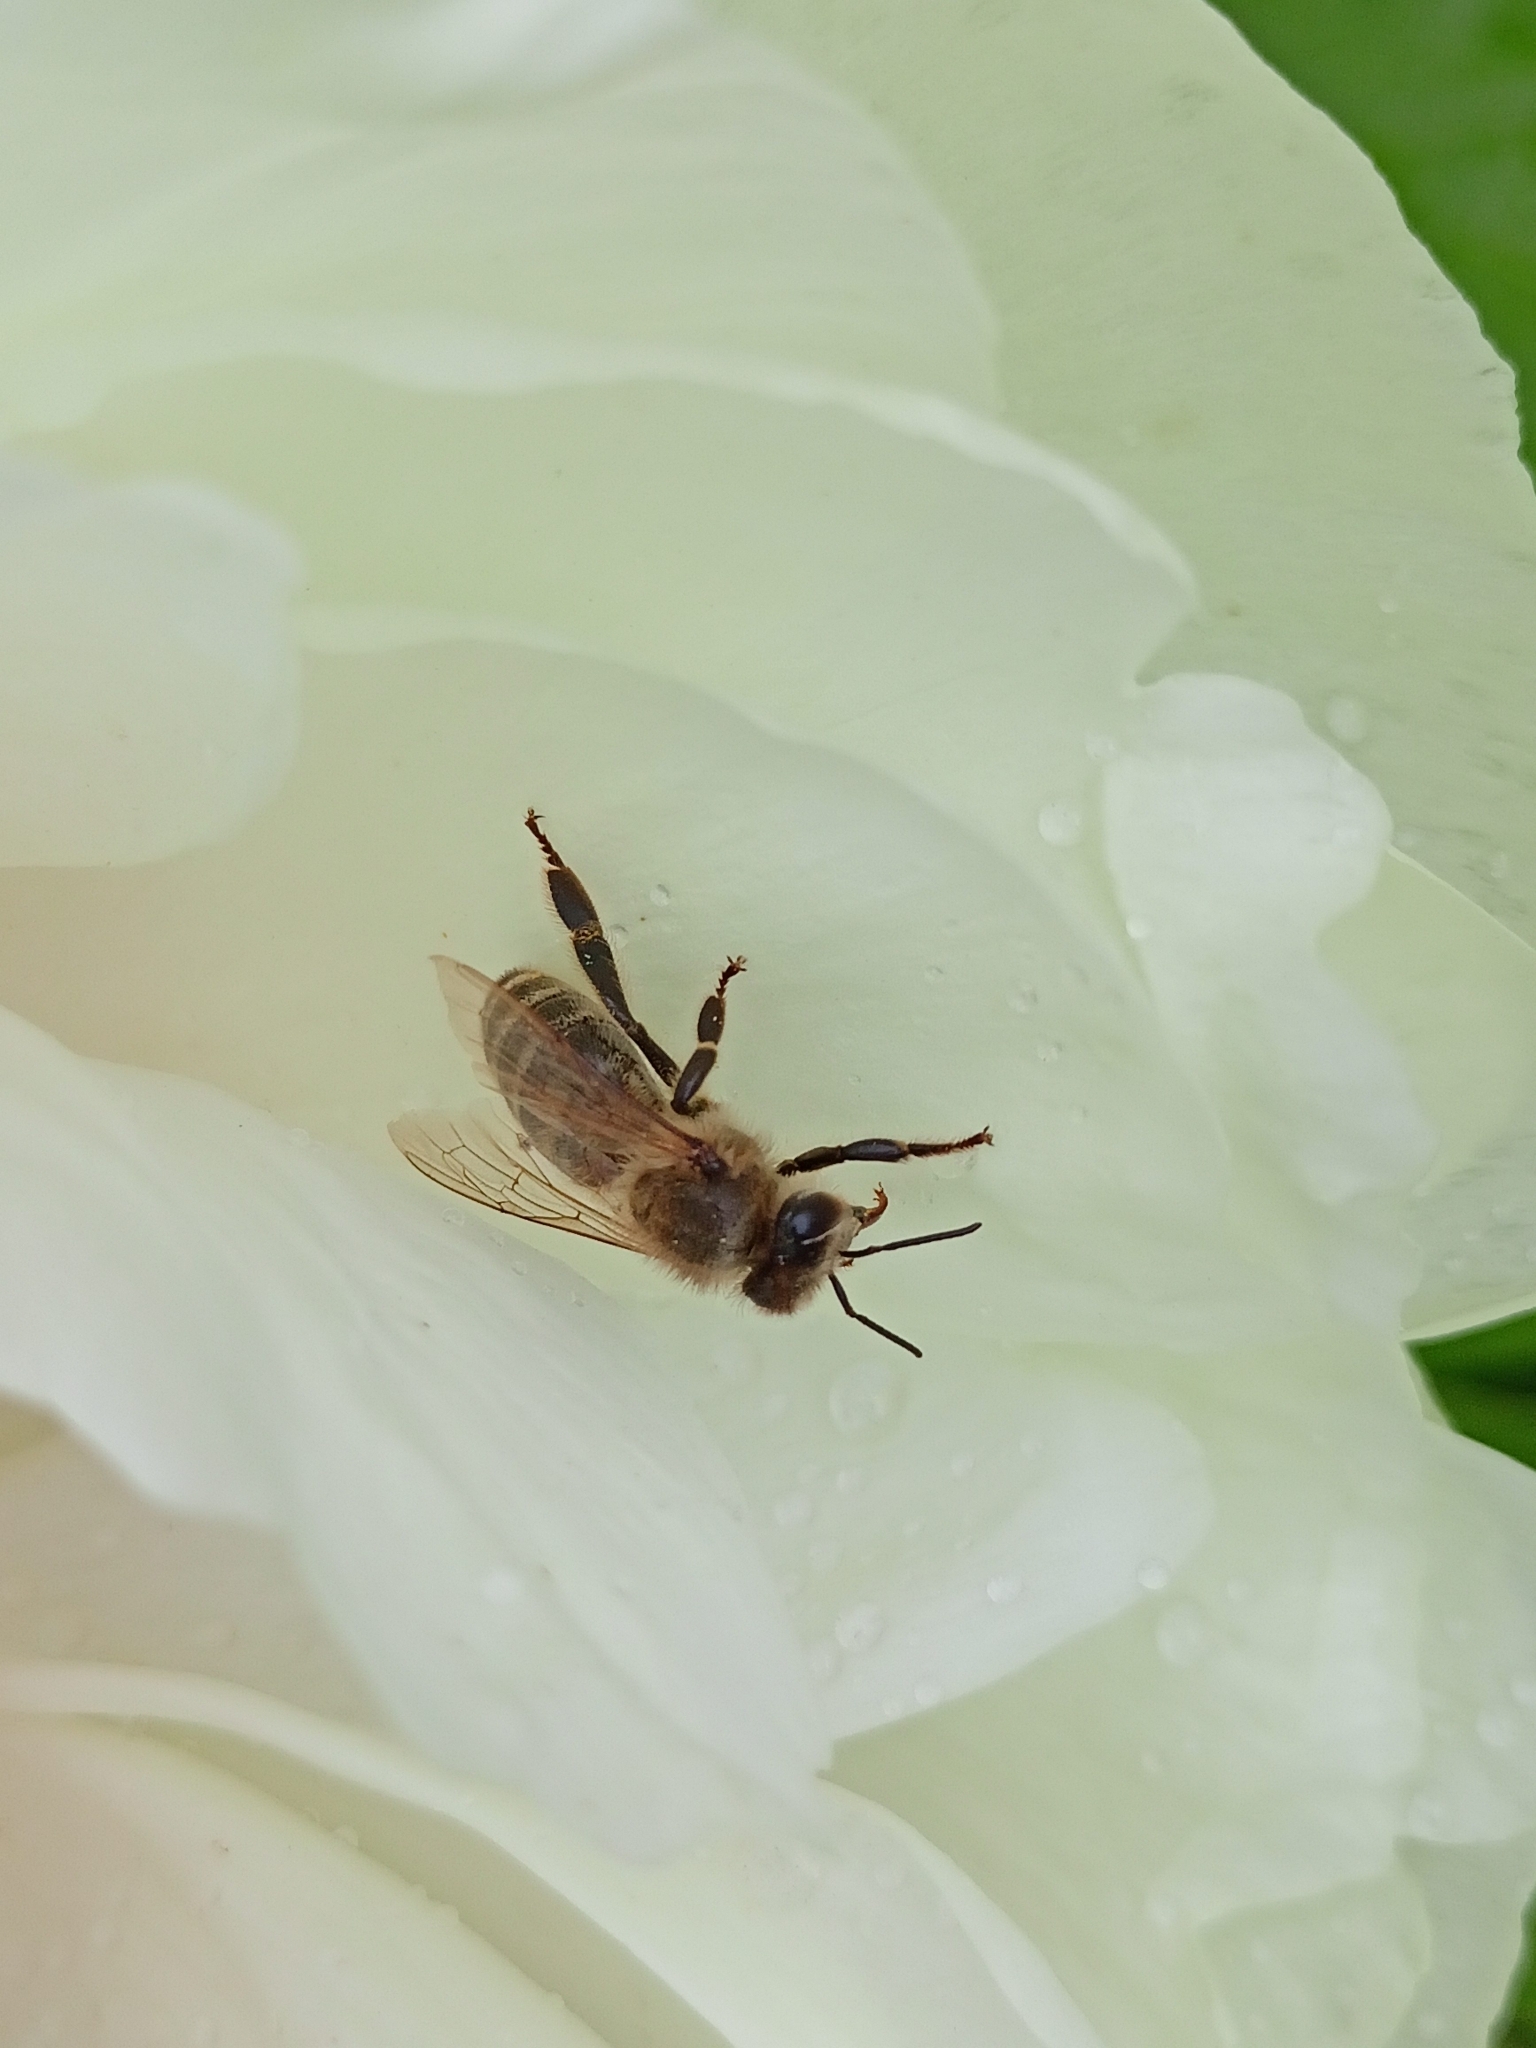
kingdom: Animalia
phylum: Arthropoda
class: Insecta
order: Hymenoptera
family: Apidae
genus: Apis
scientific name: Apis mellifera
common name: Honey bee
